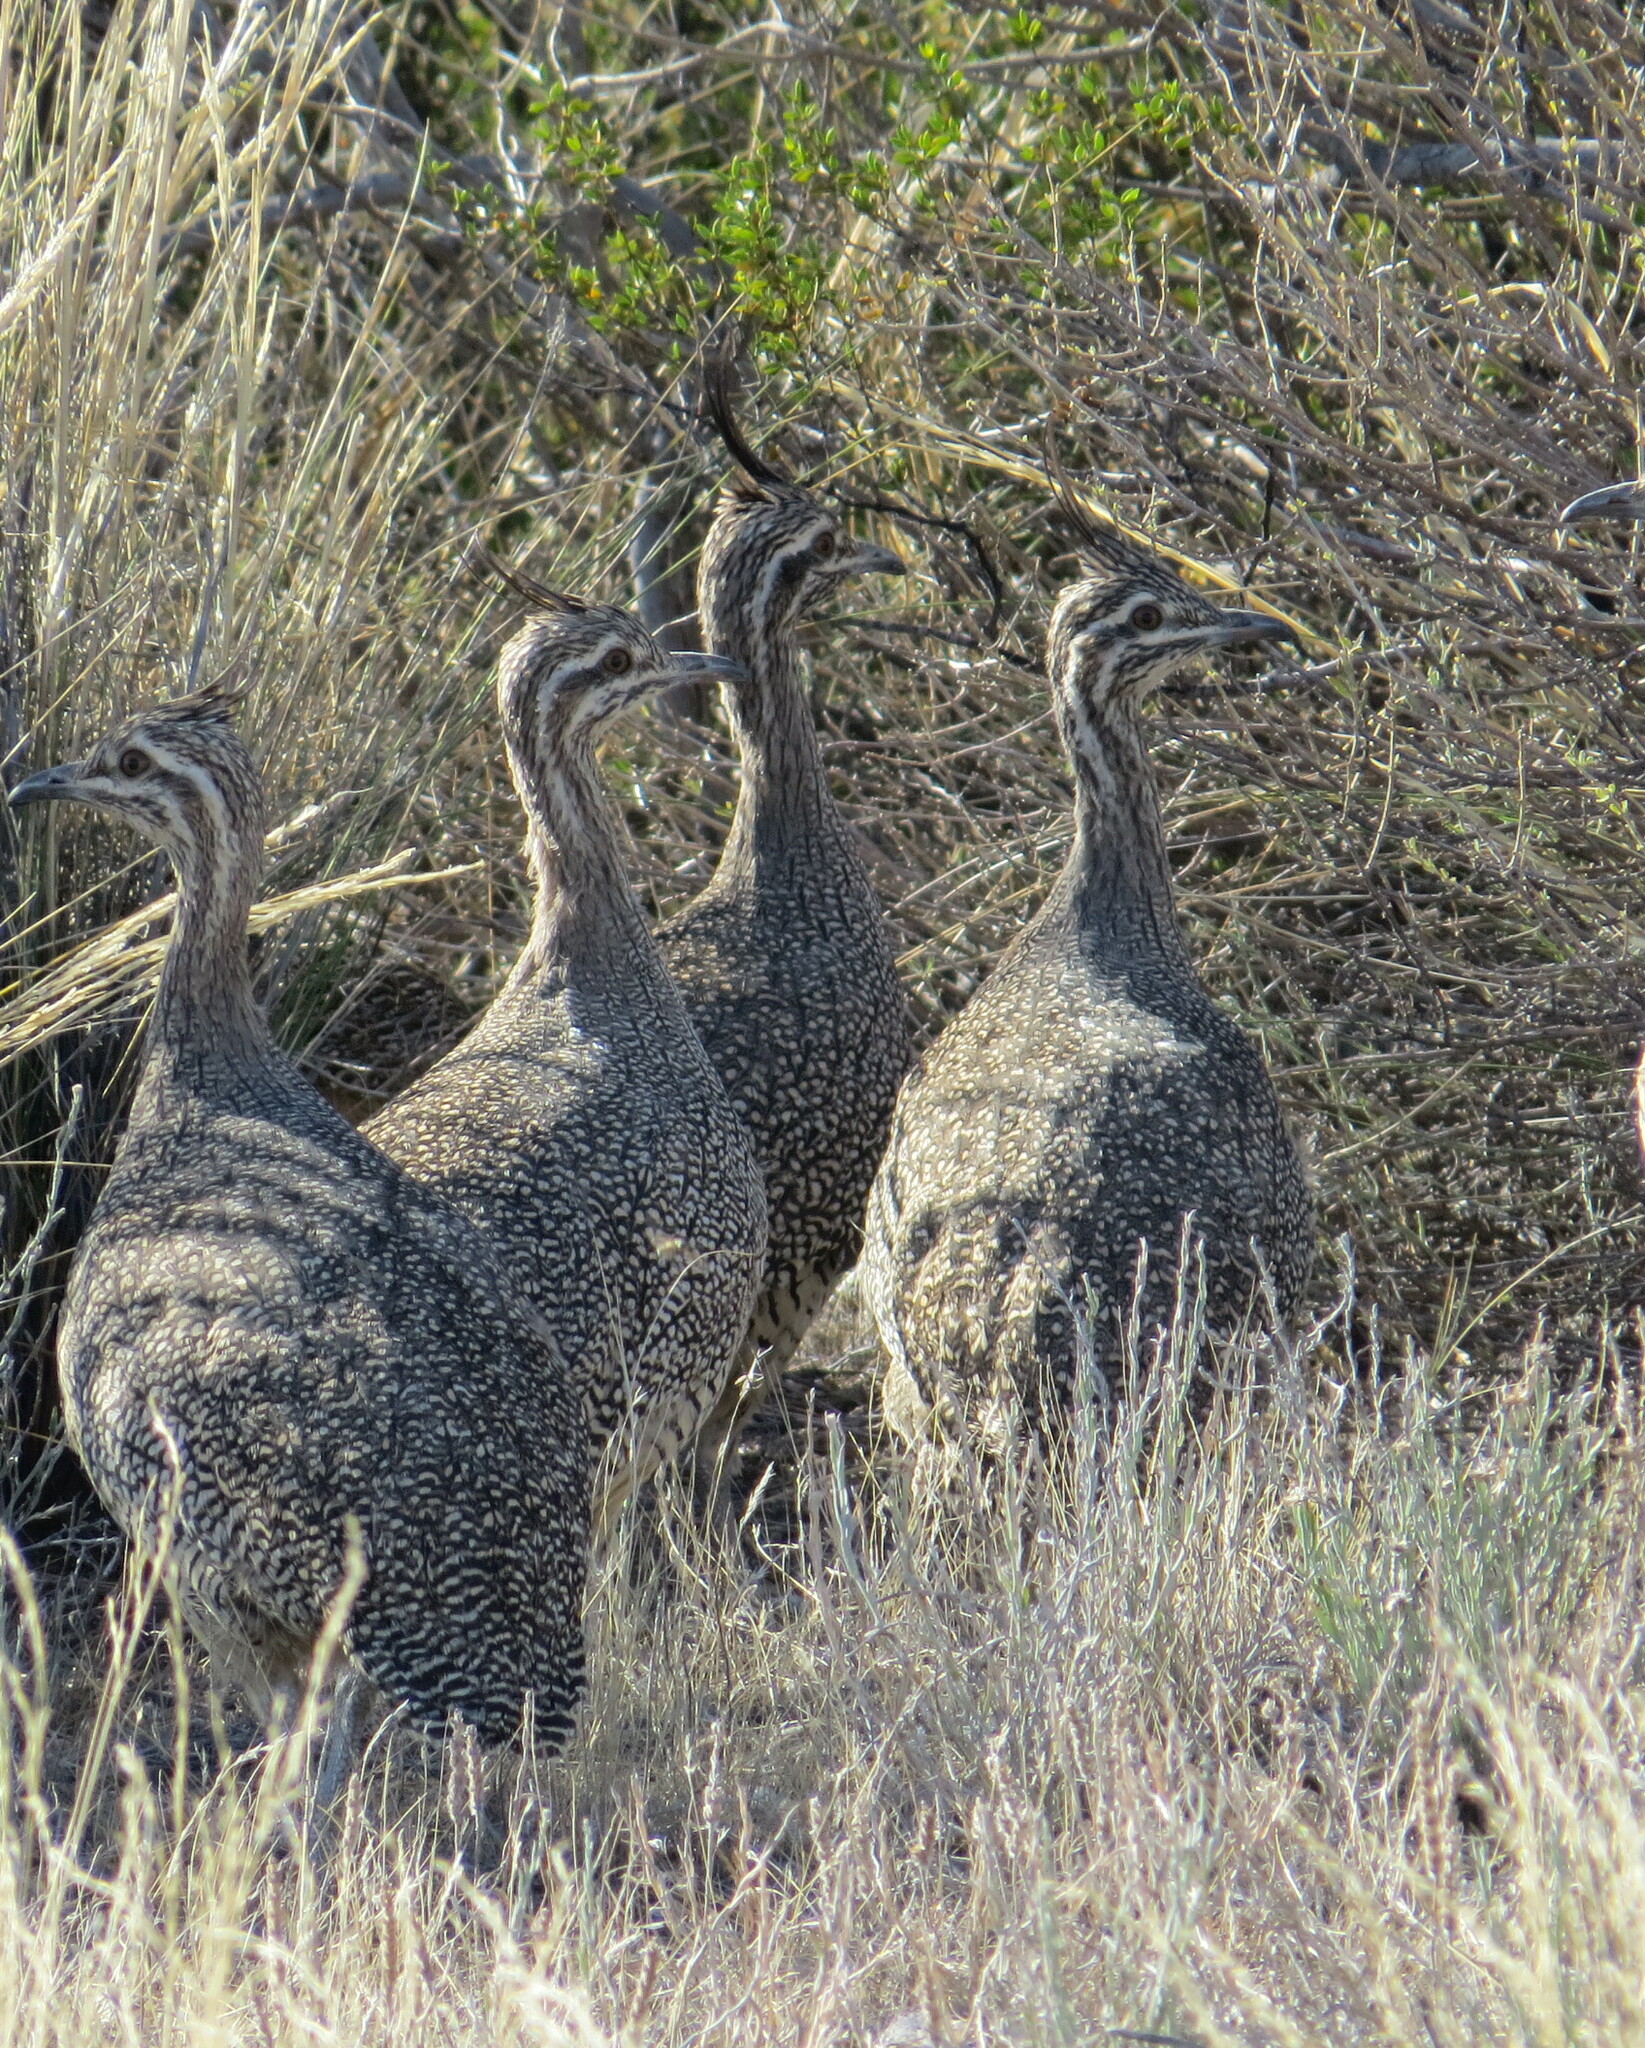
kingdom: Animalia
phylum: Chordata
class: Aves
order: Tinamiformes
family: Tinamidae
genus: Eudromia
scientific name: Eudromia elegans
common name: Elegant crested tinamou
